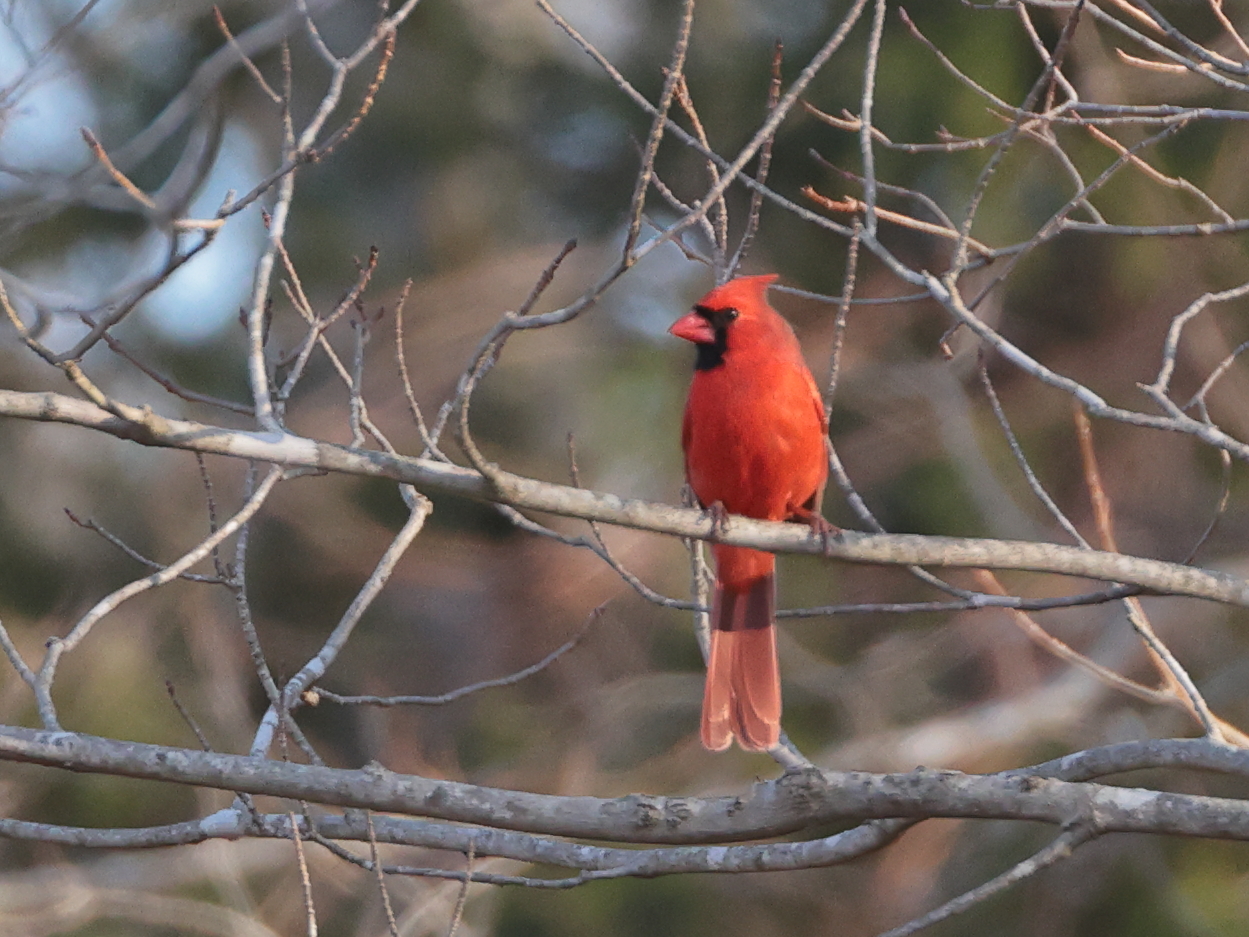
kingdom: Animalia
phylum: Chordata
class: Aves
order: Passeriformes
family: Cardinalidae
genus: Cardinalis
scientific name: Cardinalis cardinalis
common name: Northern cardinal
